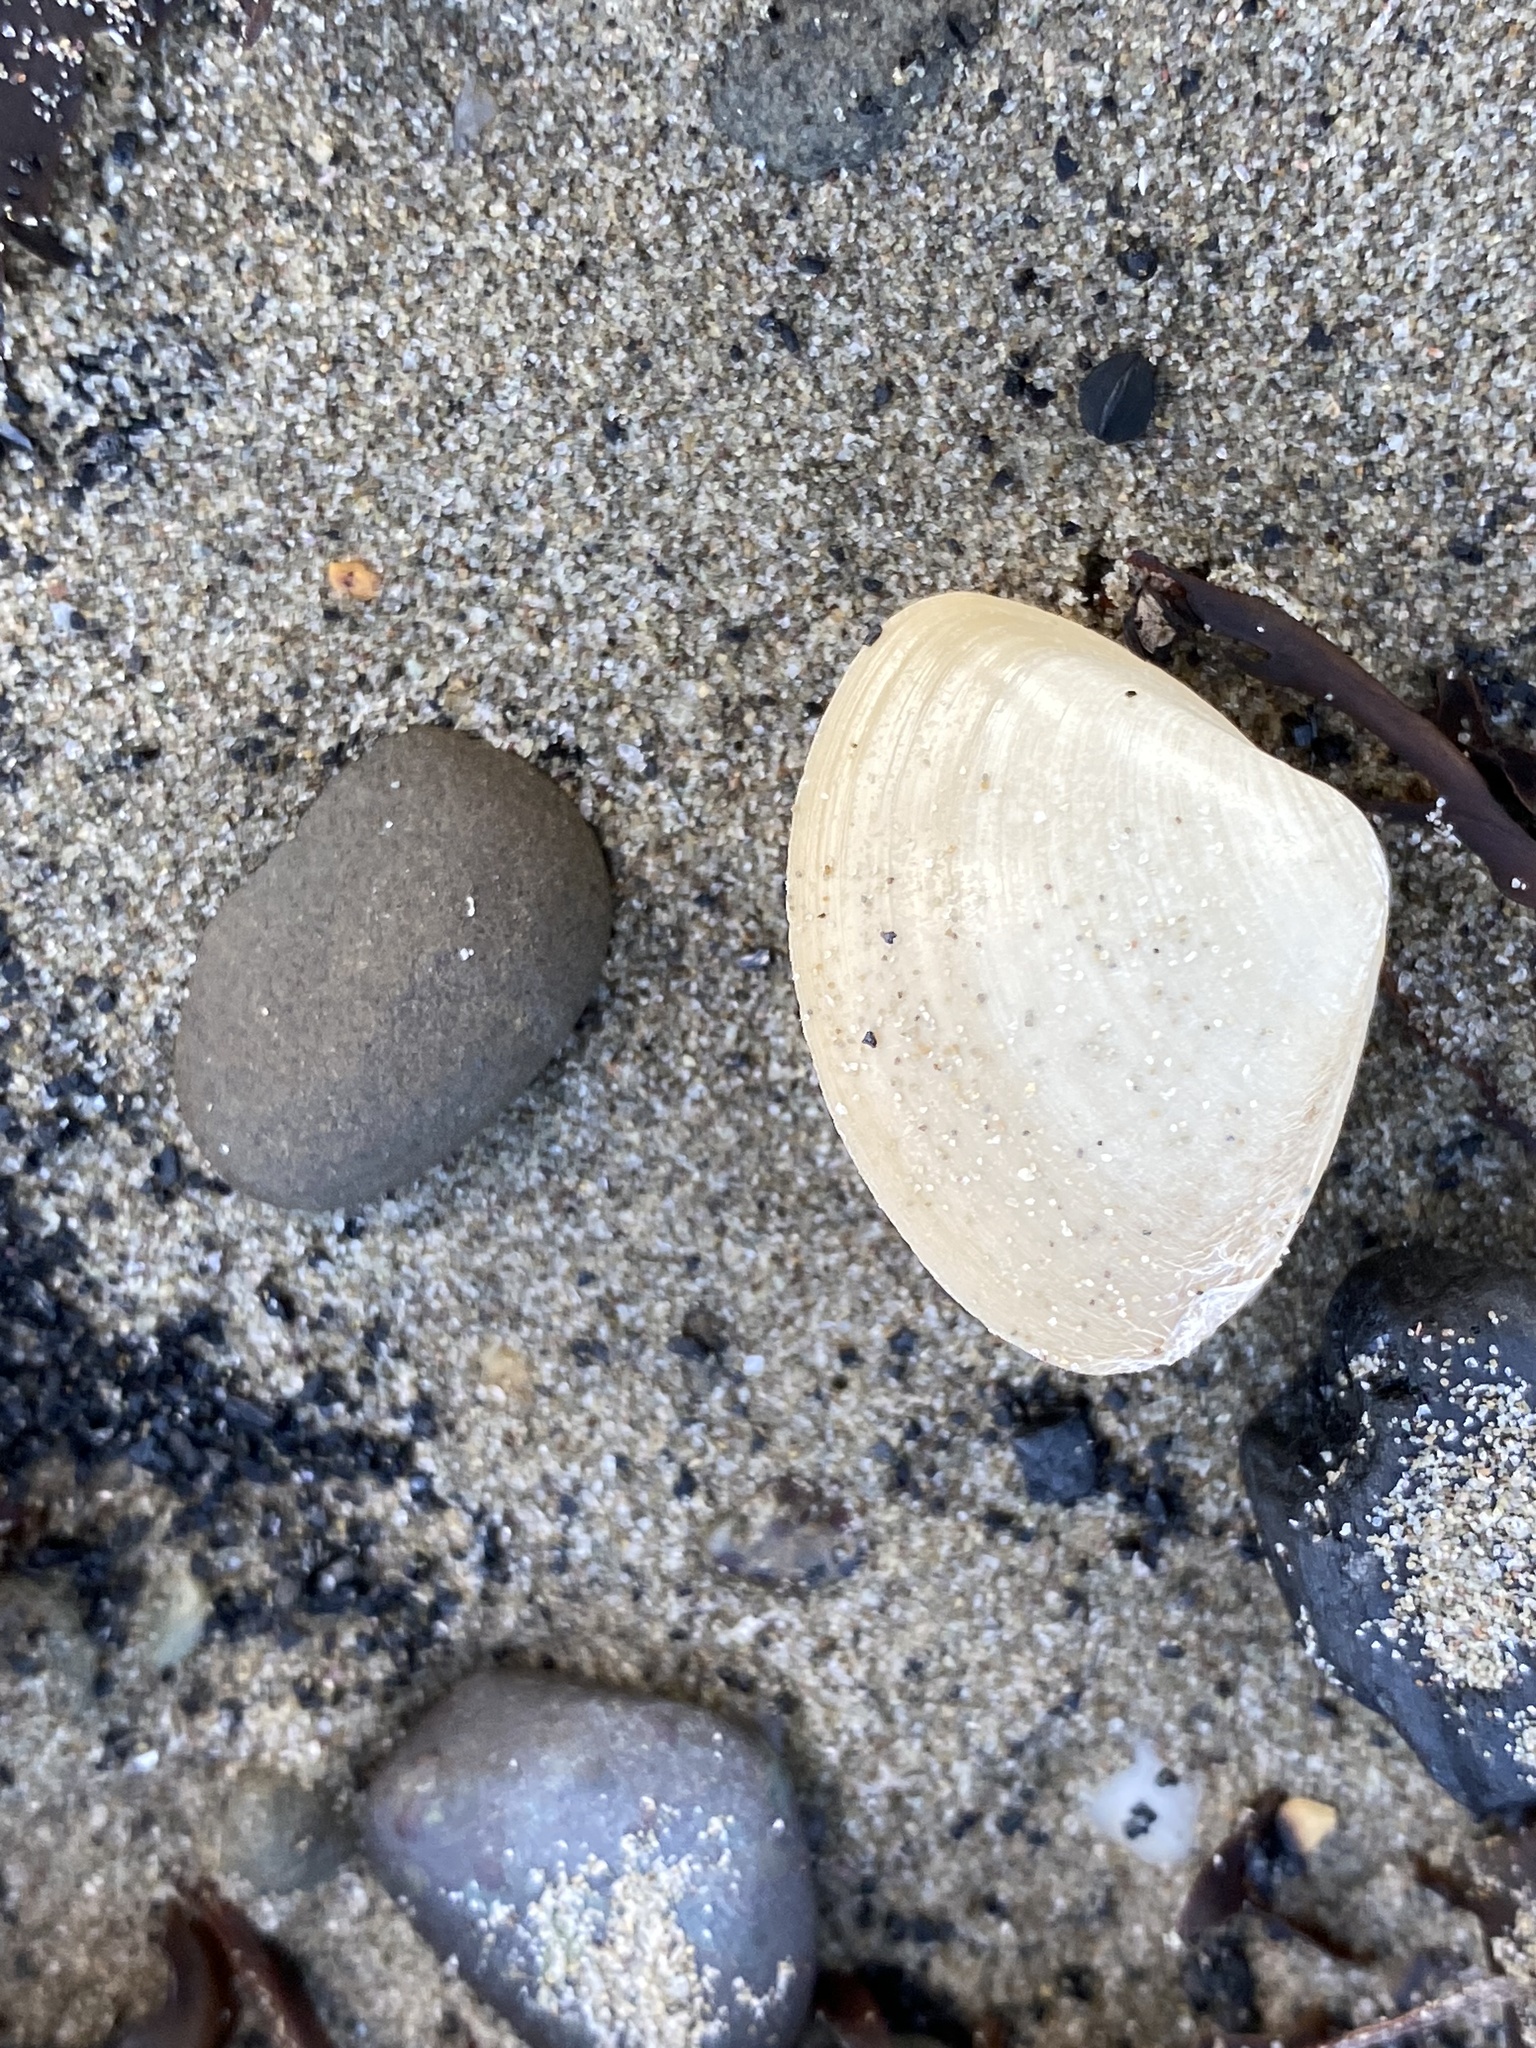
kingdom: Animalia
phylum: Mollusca
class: Bivalvia
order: Venerida
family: Mactridae
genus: Spisula
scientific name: Spisula solidissima
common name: Atlantic surf clam
